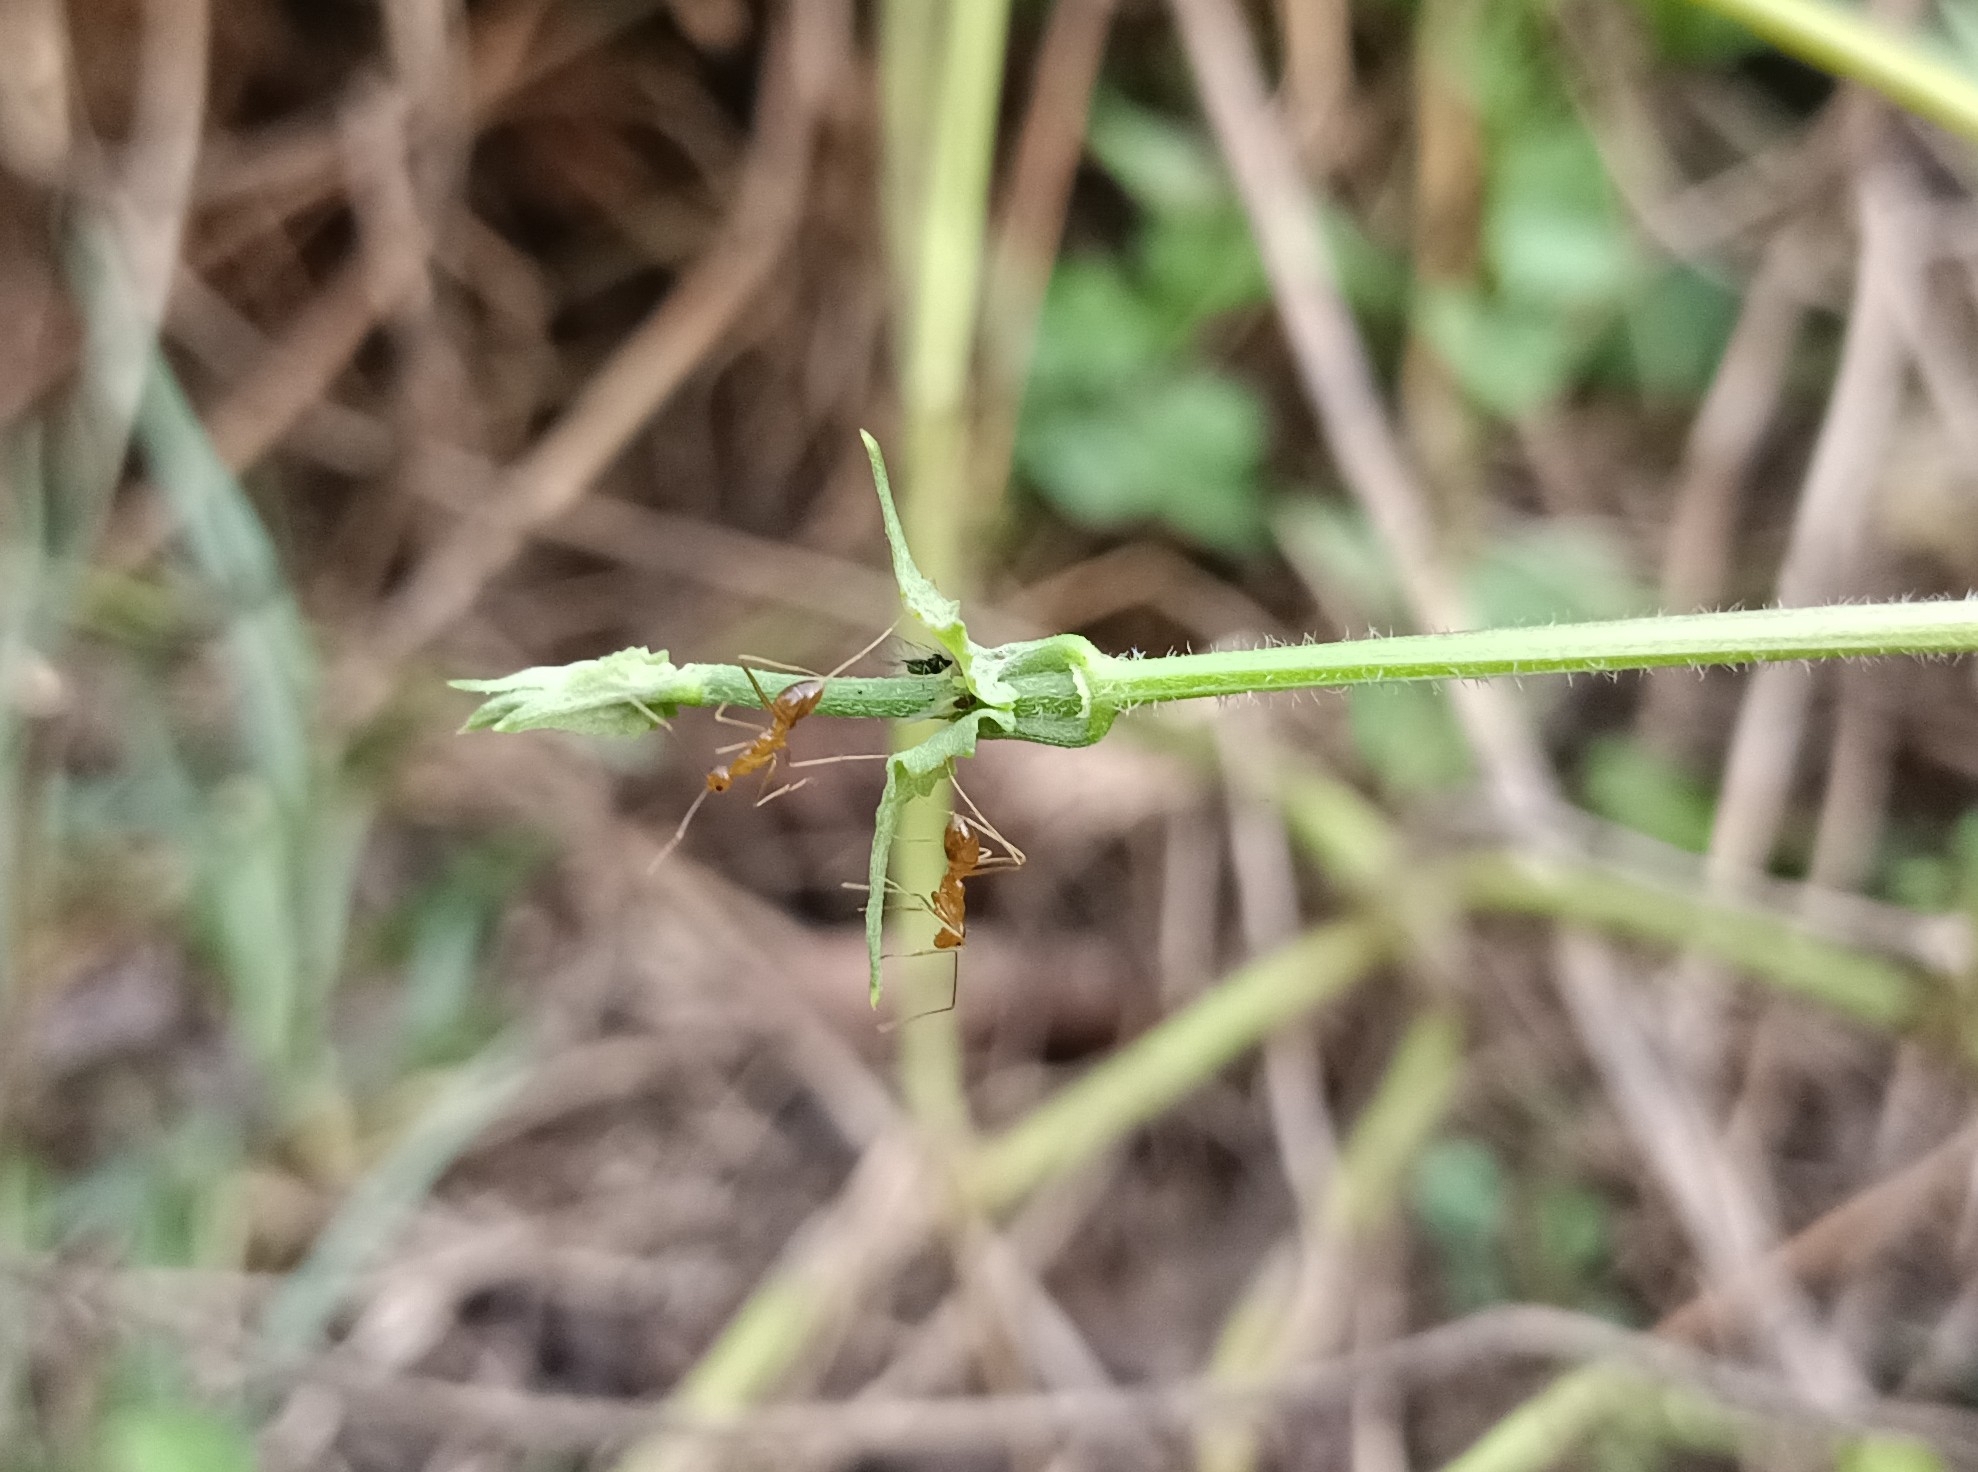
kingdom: Animalia
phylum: Arthropoda
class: Insecta
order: Hymenoptera
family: Formicidae
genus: Anoplolepis
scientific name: Anoplolepis gracilipes
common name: Ant
